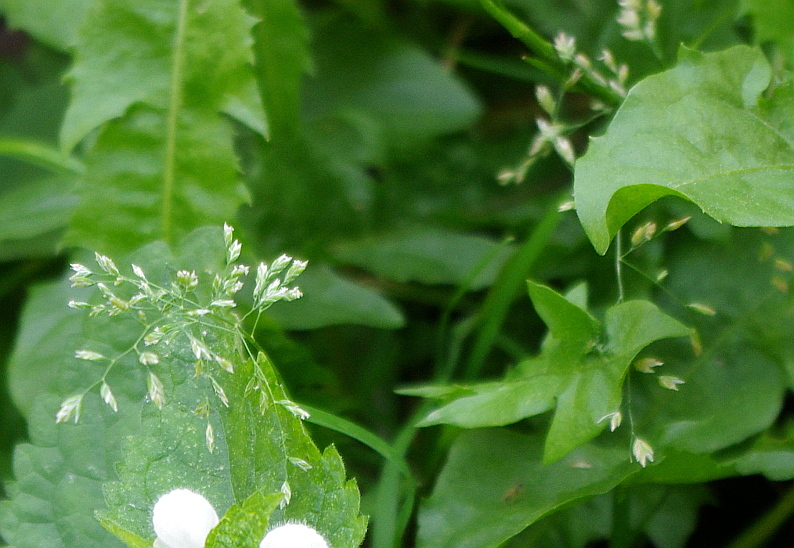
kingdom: Plantae
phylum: Tracheophyta
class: Liliopsida
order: Poales
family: Poaceae
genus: Poa
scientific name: Poa annua
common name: Annual bluegrass
